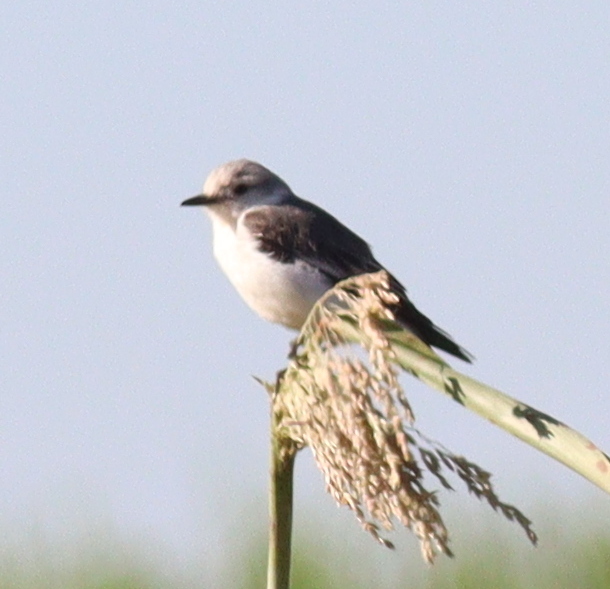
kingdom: Animalia
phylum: Chordata
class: Aves
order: Passeriformes
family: Tyrannidae
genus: Xolmis
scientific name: Xolmis velatus
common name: White-rumped monjita
